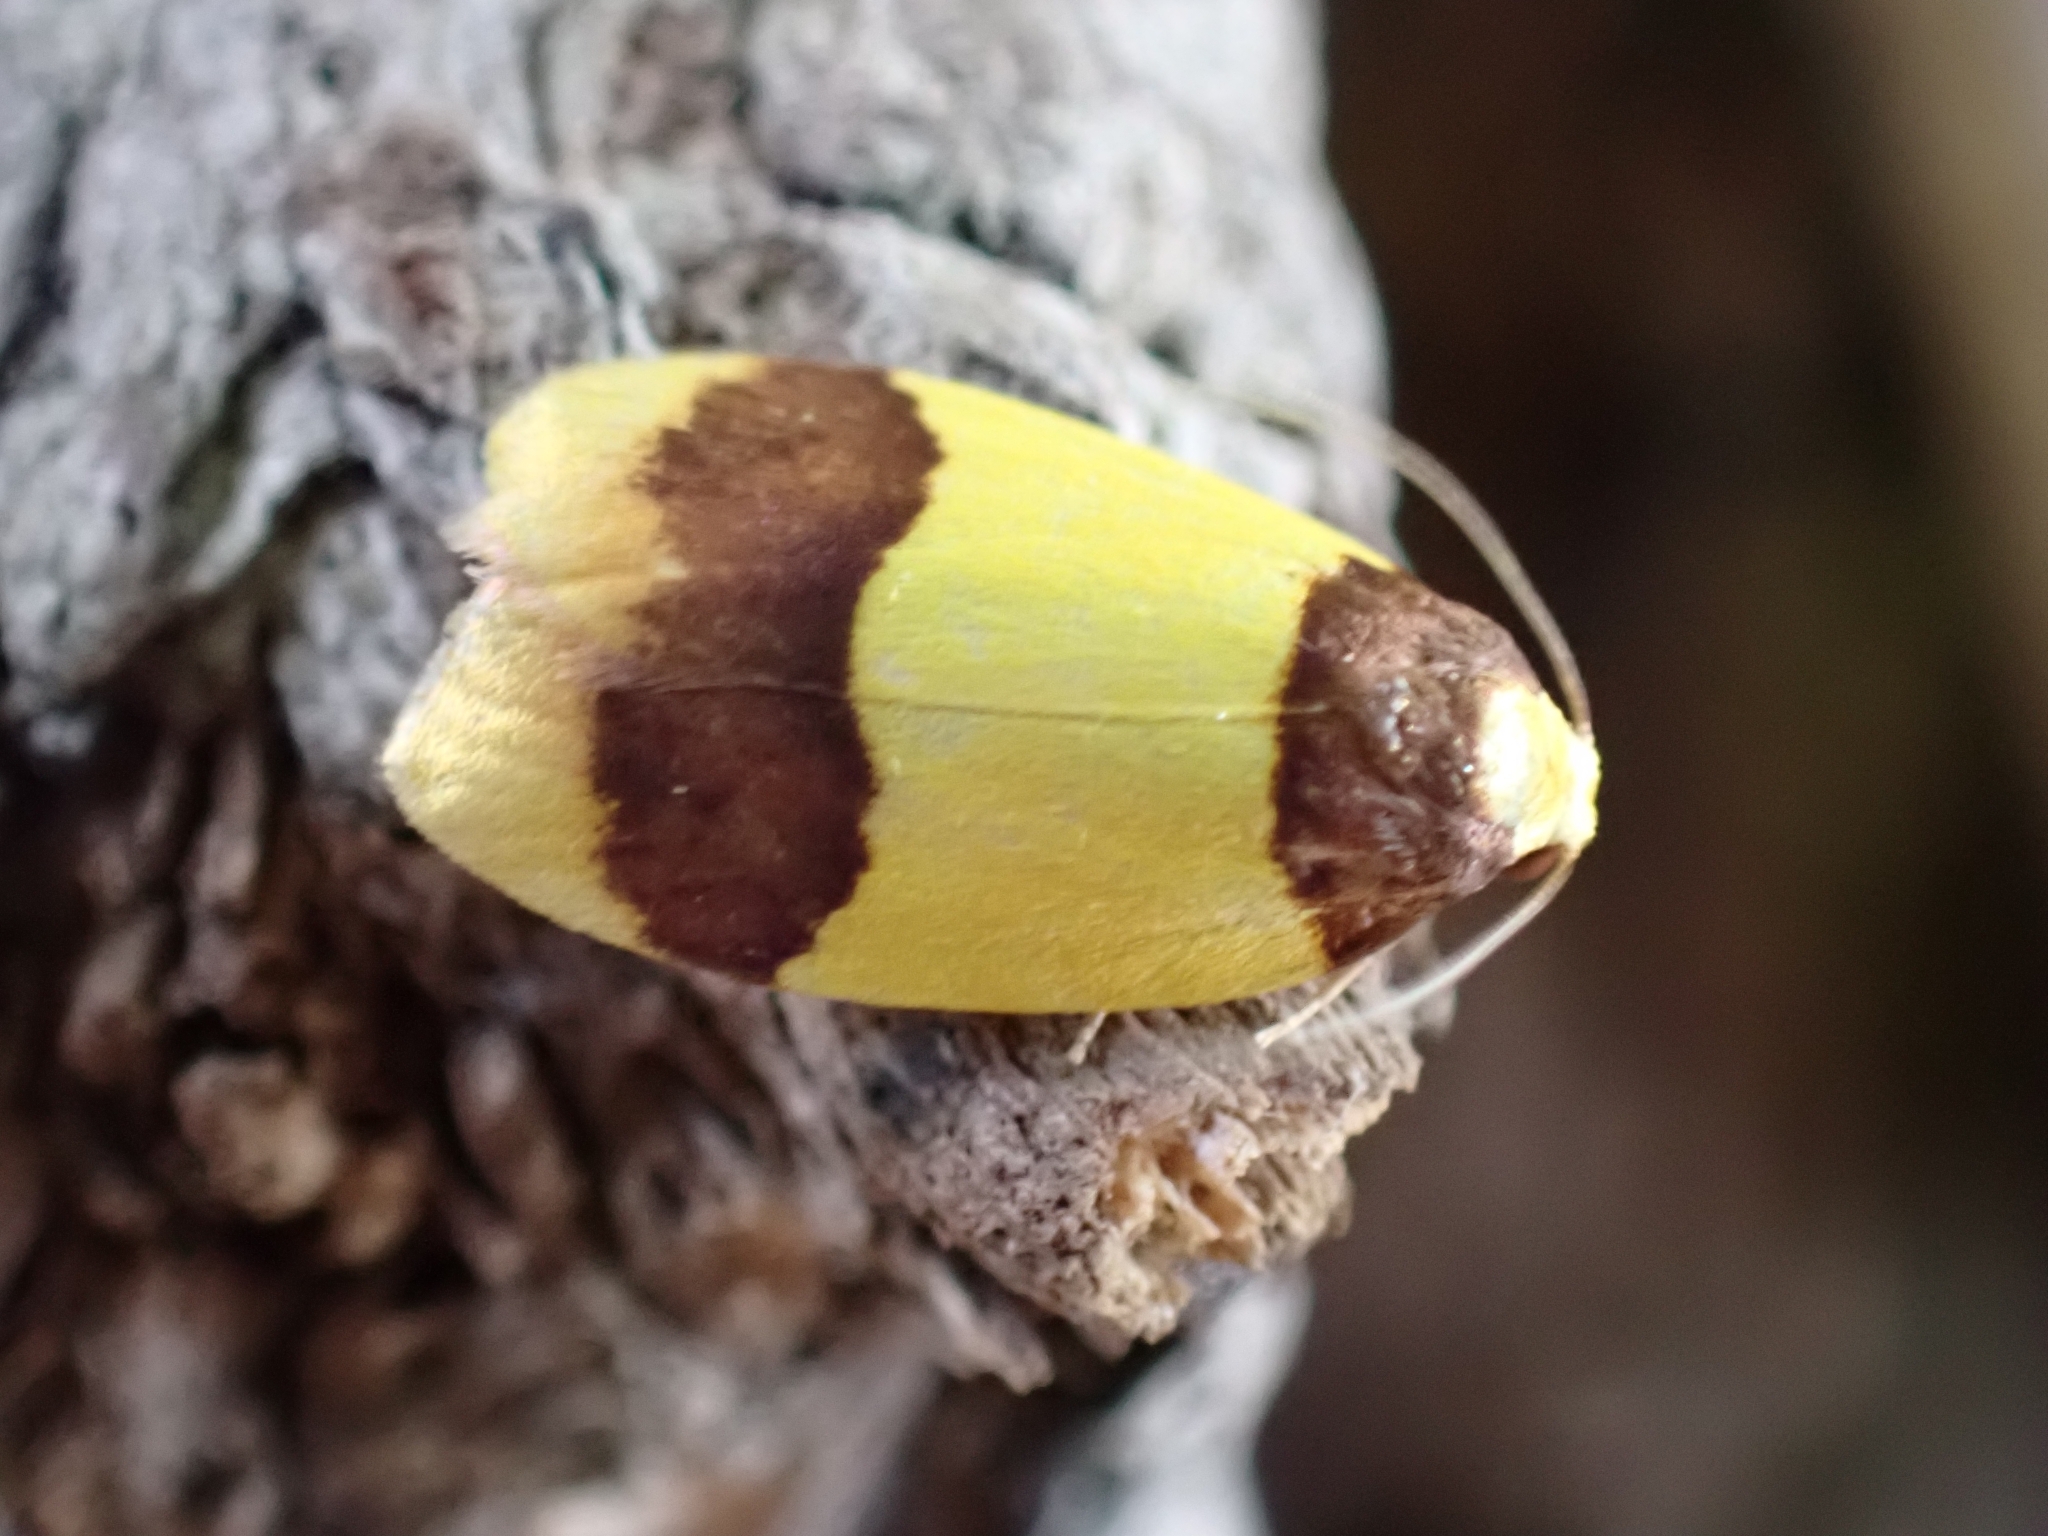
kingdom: Animalia
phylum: Arthropoda
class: Insecta
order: Lepidoptera
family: Erebidae
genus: Heterallactis
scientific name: Heterallactis euchrysa
